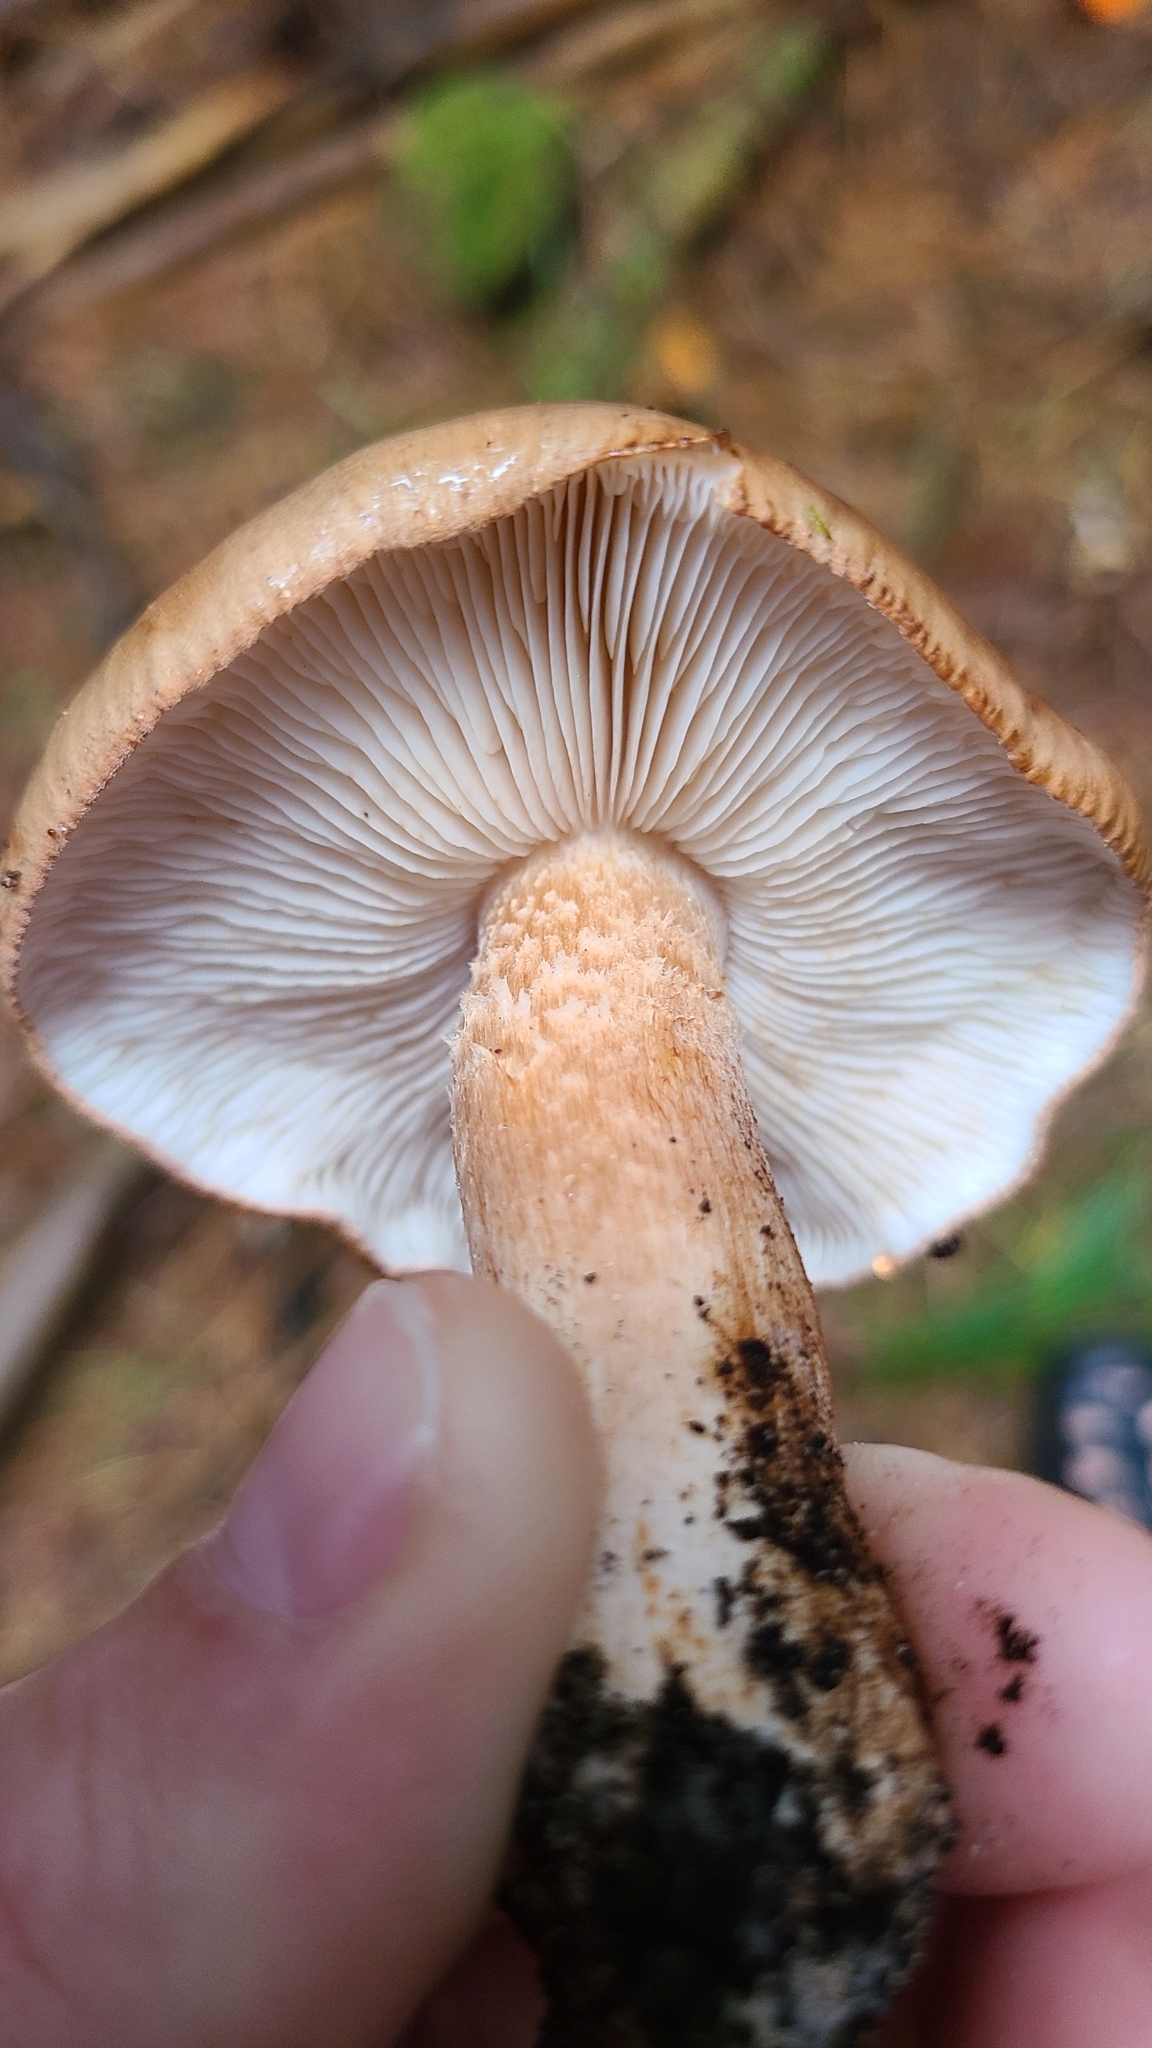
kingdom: Fungi
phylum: Basidiomycota
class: Agaricomycetes
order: Agaricales
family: Tricholomataceae
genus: Tricholoma
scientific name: Tricholoma albobrunneum
